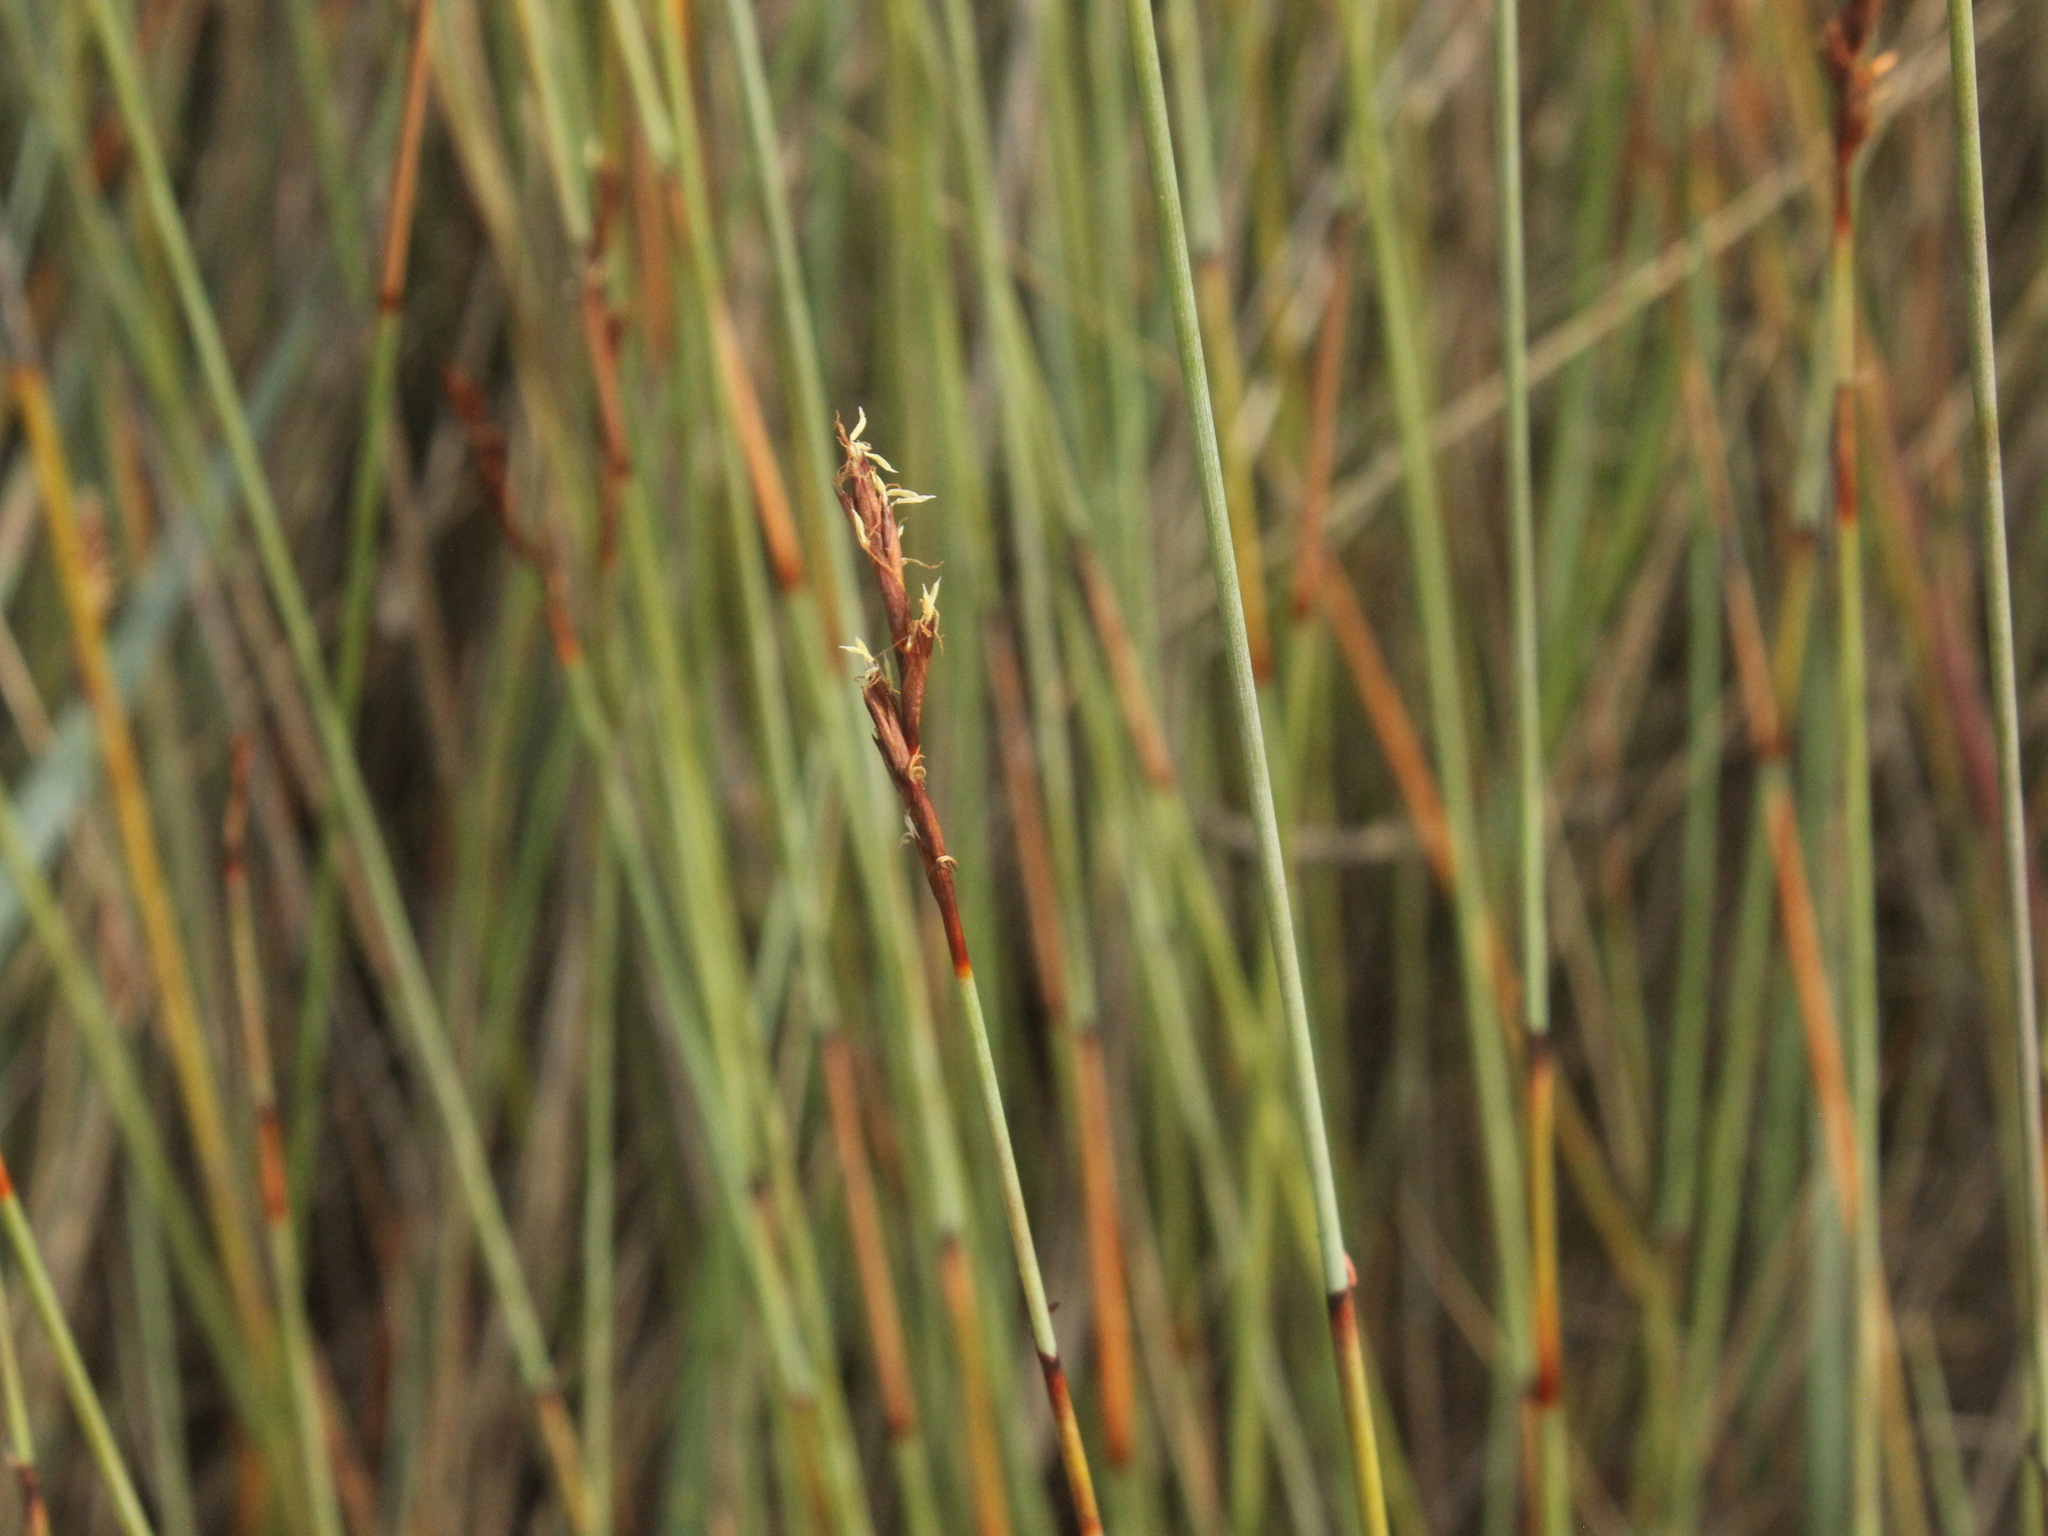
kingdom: Plantae
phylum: Tracheophyta
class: Liliopsida
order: Poales
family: Cyperaceae
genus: Machaerina
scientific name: Machaerina juncea
